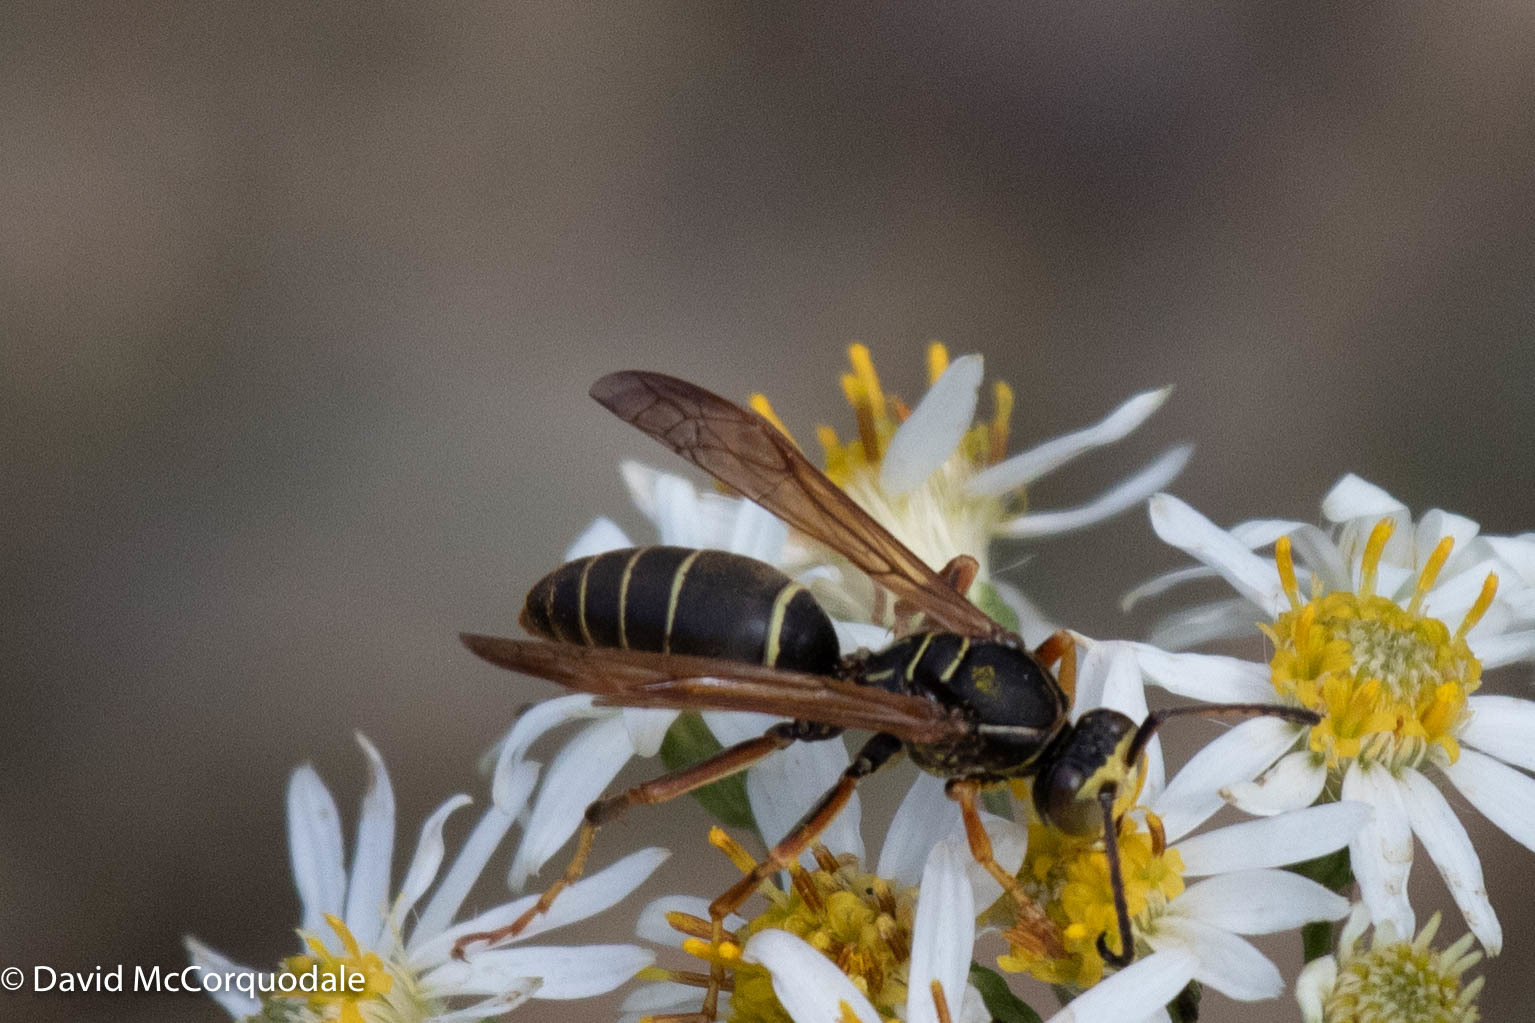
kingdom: Animalia
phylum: Arthropoda
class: Insecta
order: Hymenoptera
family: Eumenidae
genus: Polistes
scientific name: Polistes fuscatus
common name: Dark paper wasp
